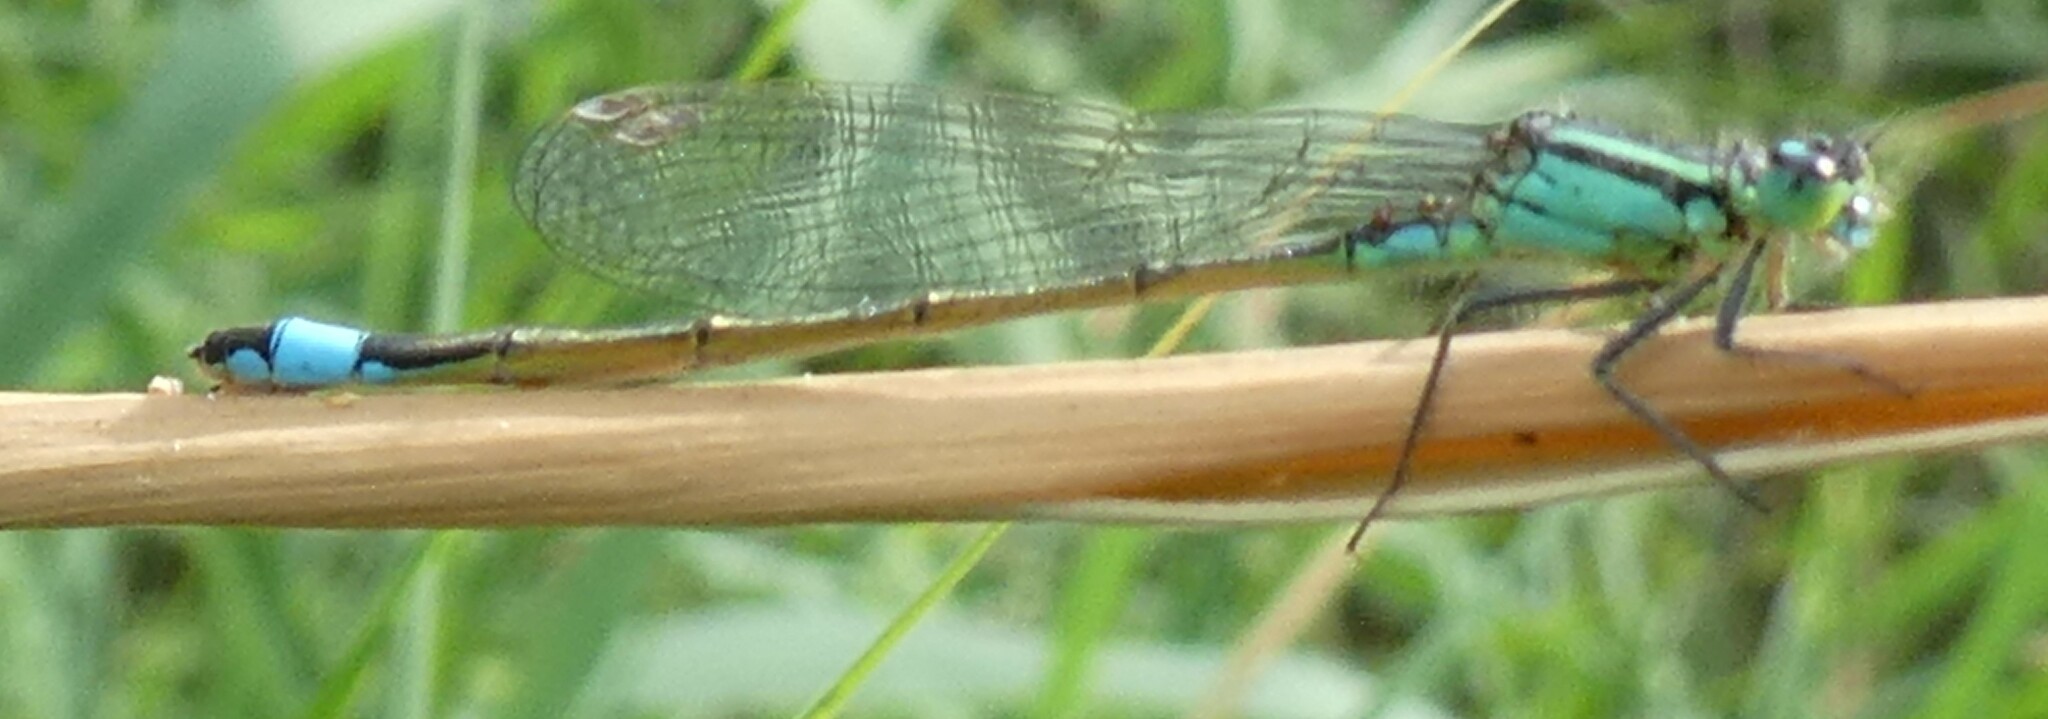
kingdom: Animalia
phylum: Arthropoda
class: Insecta
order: Odonata
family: Coenagrionidae
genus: Ischnura
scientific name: Ischnura elegans
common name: Blue-tailed damselfly
